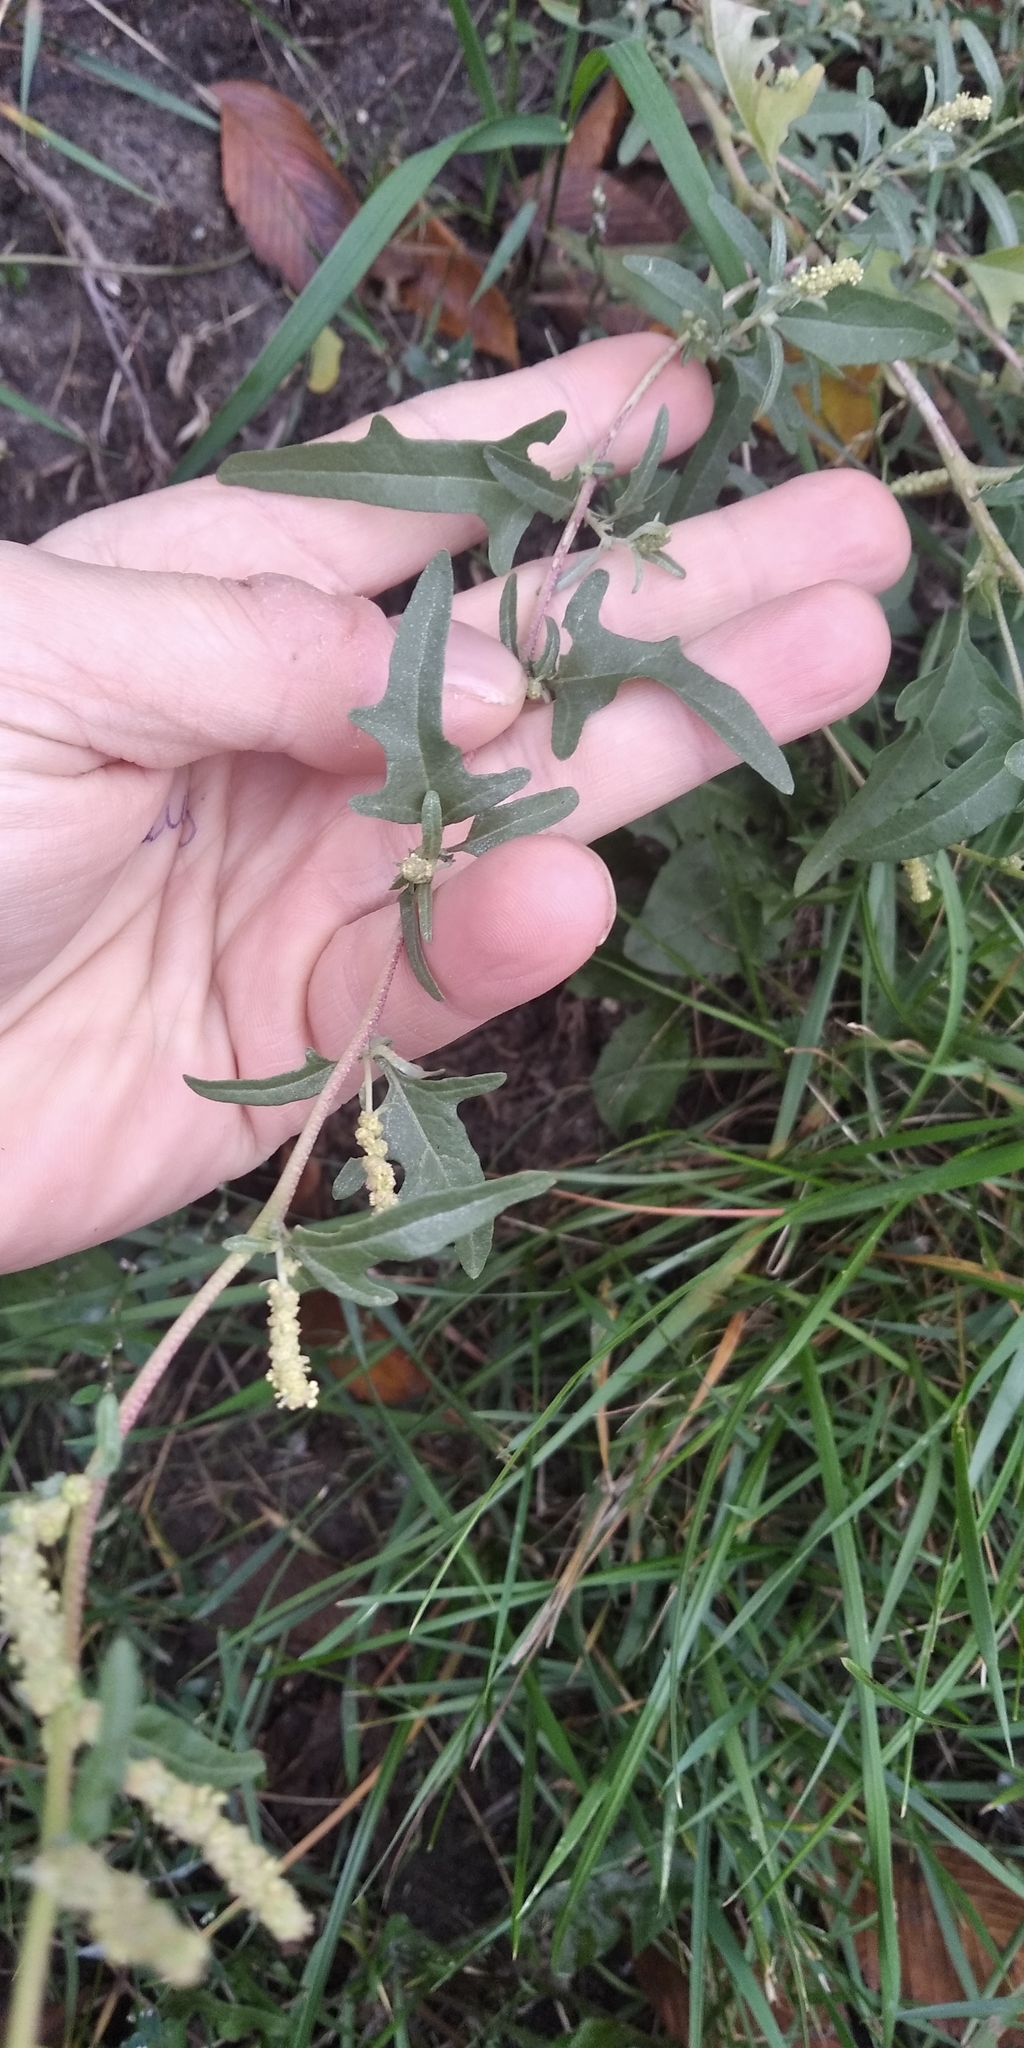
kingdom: Plantae
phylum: Tracheophyta
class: Magnoliopsida
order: Caryophyllales
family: Amaranthaceae
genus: Atriplex
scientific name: Atriplex tatarica
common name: Tatarian orache
